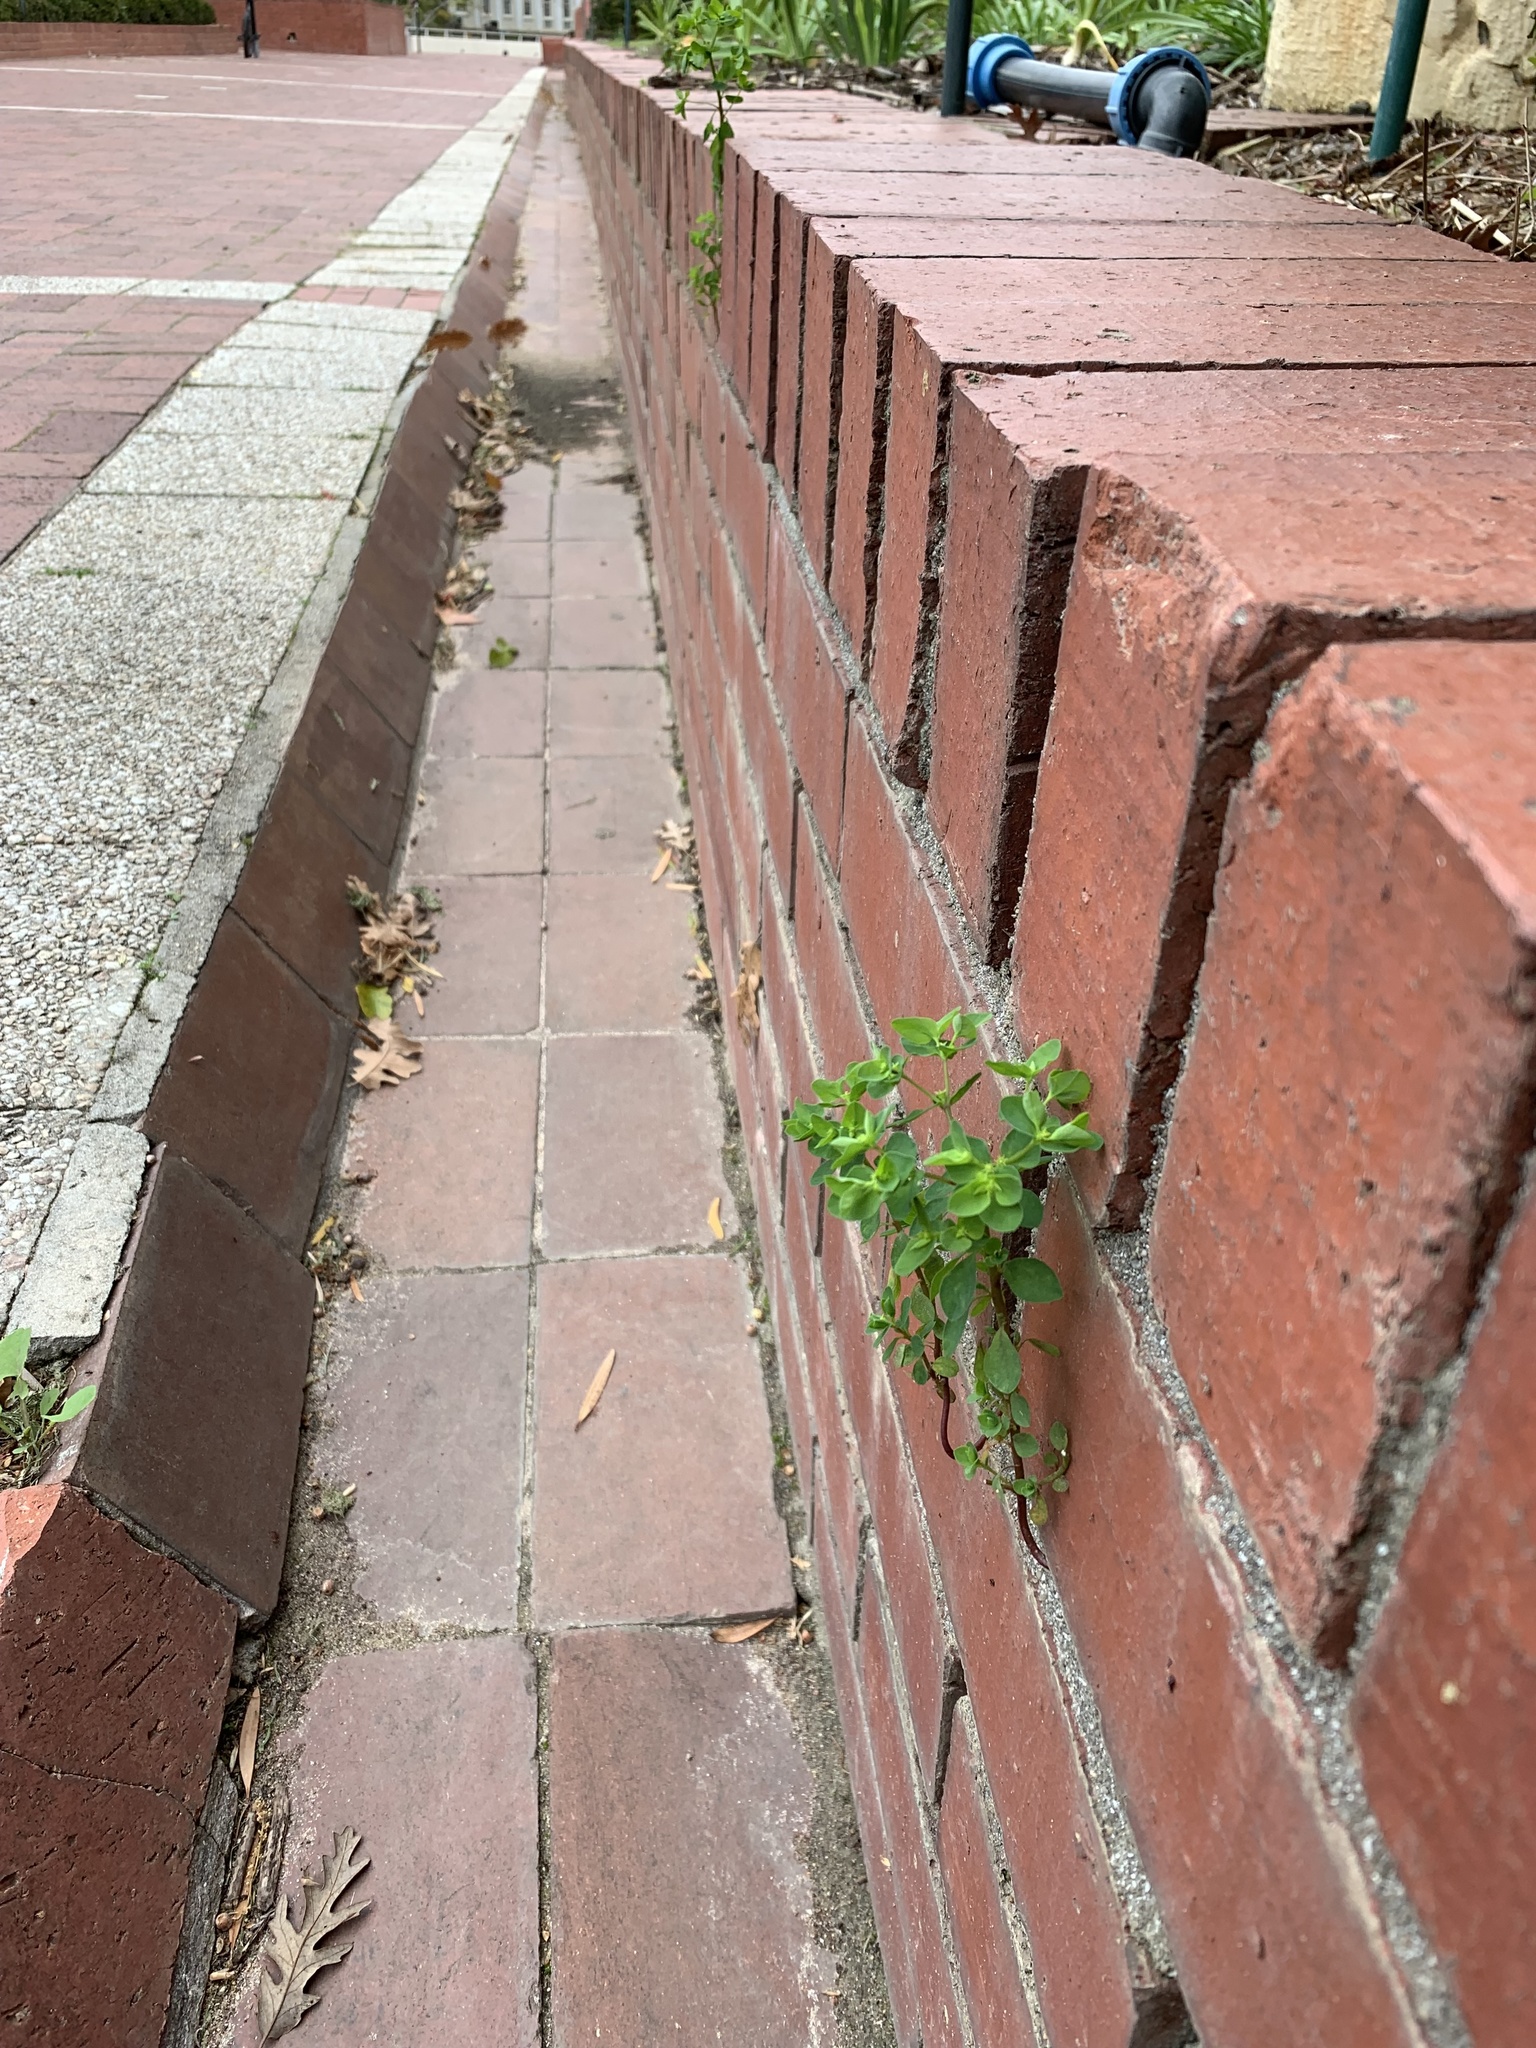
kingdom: Plantae
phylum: Tracheophyta
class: Magnoliopsida
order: Malpighiales
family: Euphorbiaceae
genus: Euphorbia
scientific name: Euphorbia peplus
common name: Petty spurge
